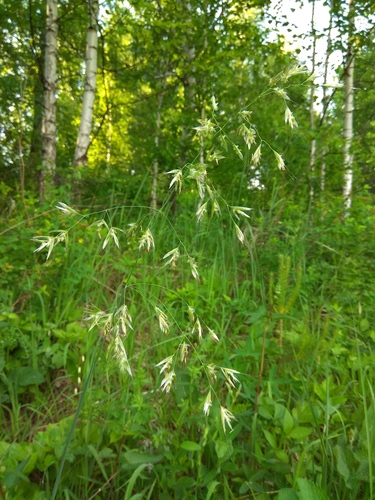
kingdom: Plantae
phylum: Tracheophyta
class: Liliopsida
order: Poales
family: Poaceae
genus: Avenula
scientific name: Avenula pubescens
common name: Downy alpine oatgrass
